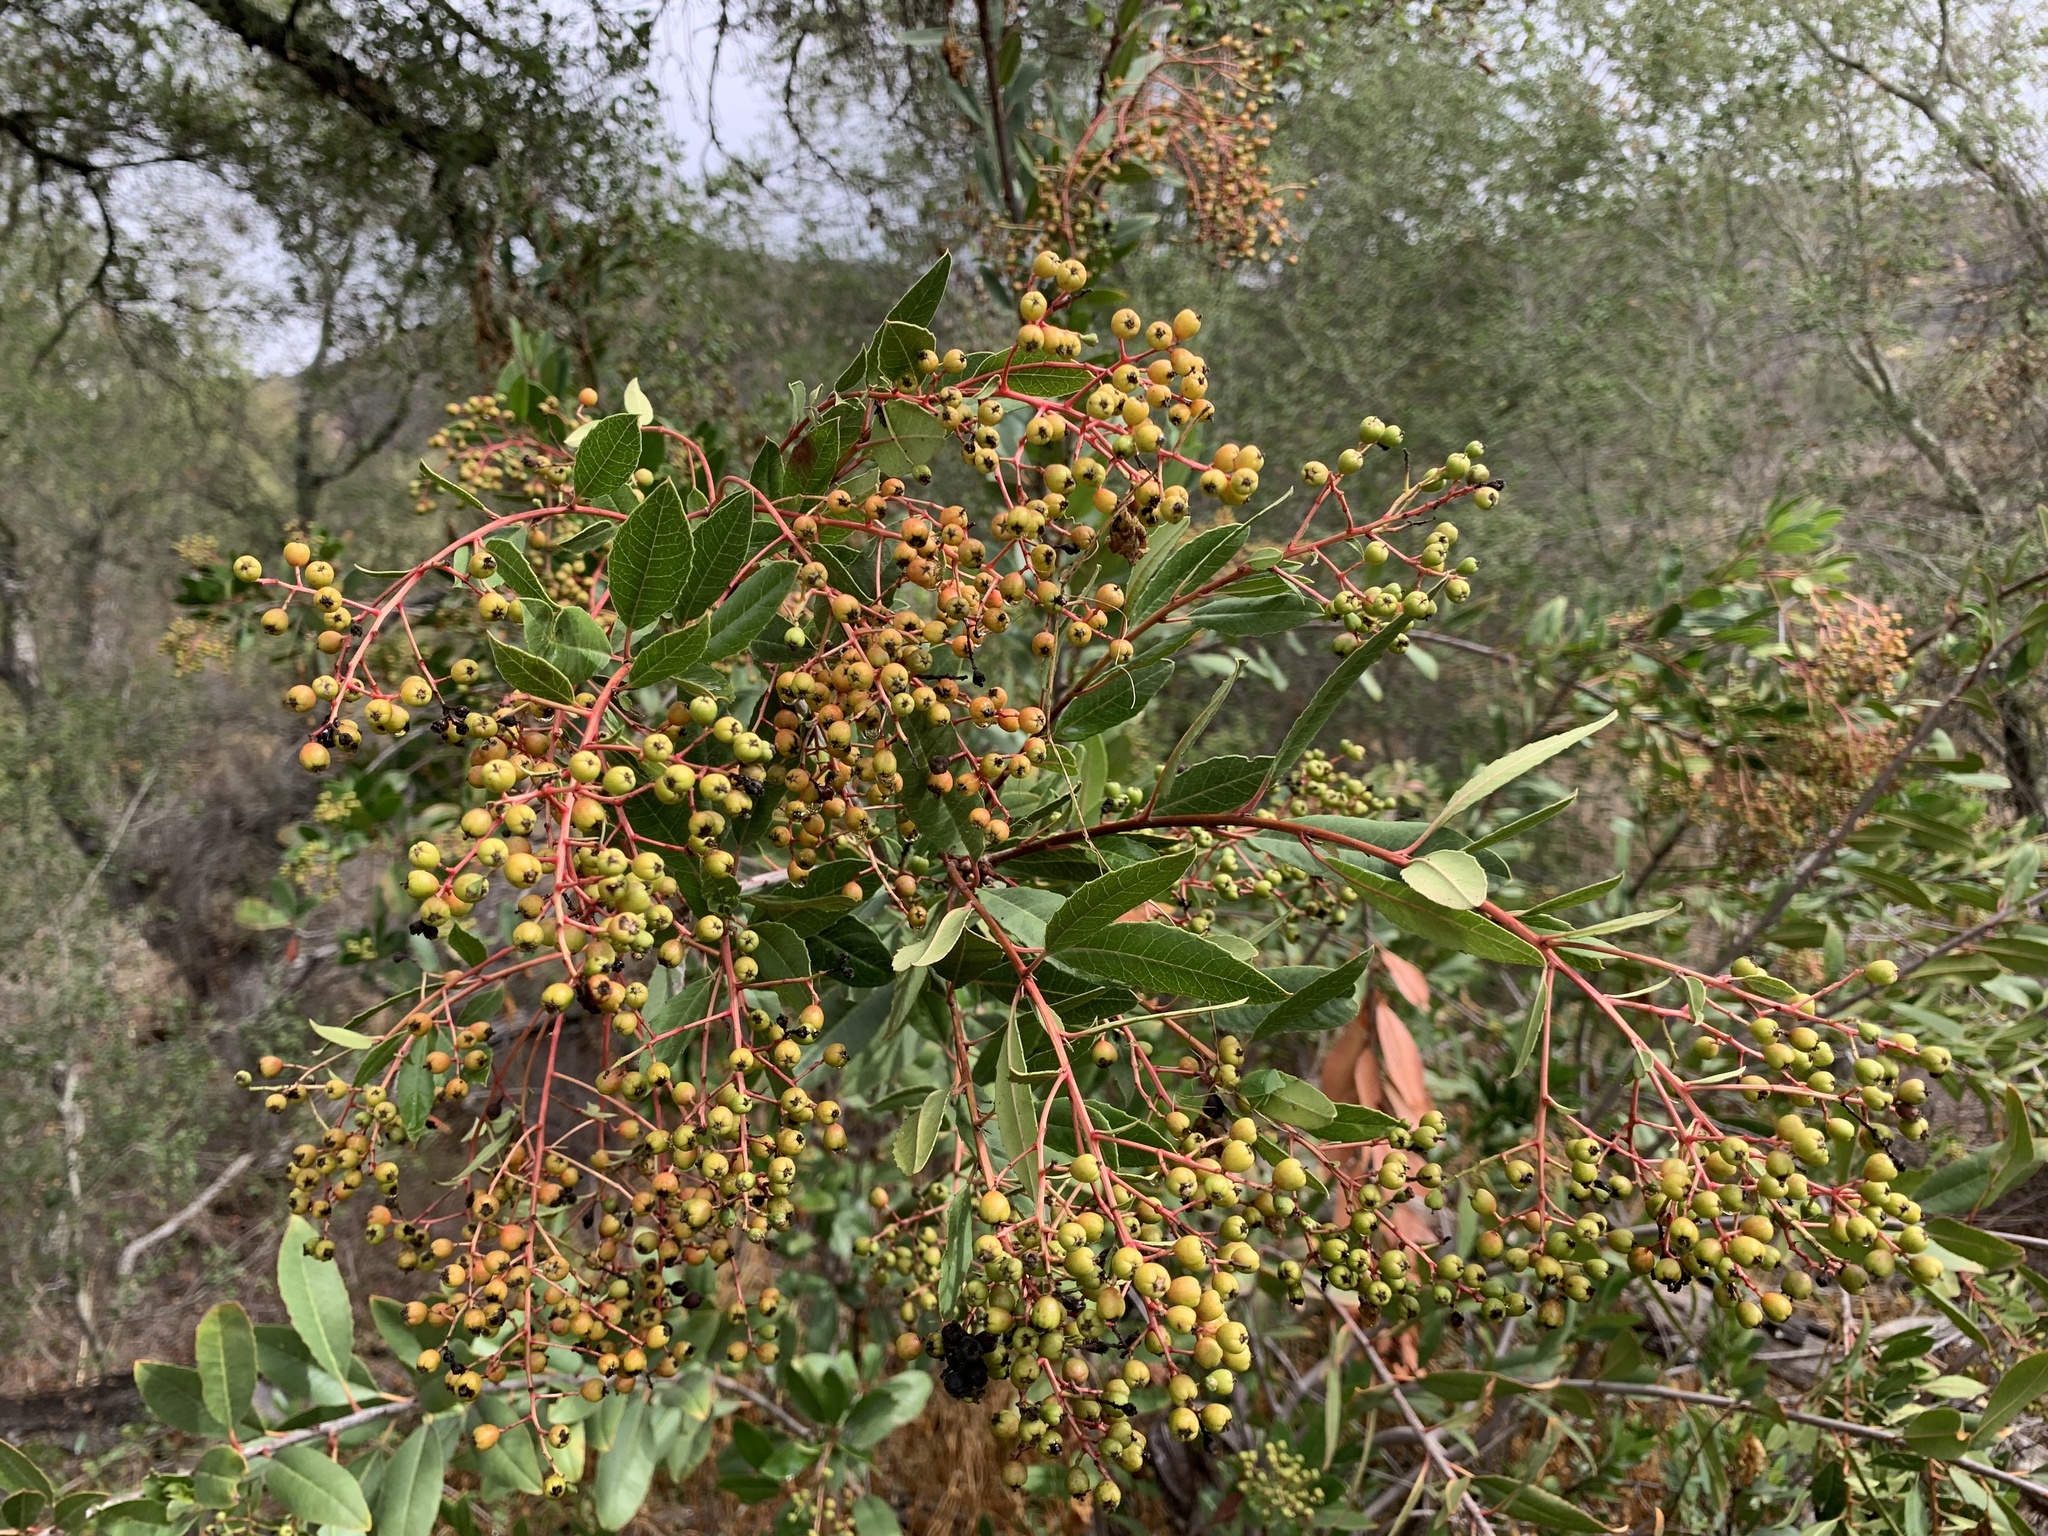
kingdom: Plantae
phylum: Tracheophyta
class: Magnoliopsida
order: Rosales
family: Rosaceae
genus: Heteromeles
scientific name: Heteromeles arbutifolia
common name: California-holly
